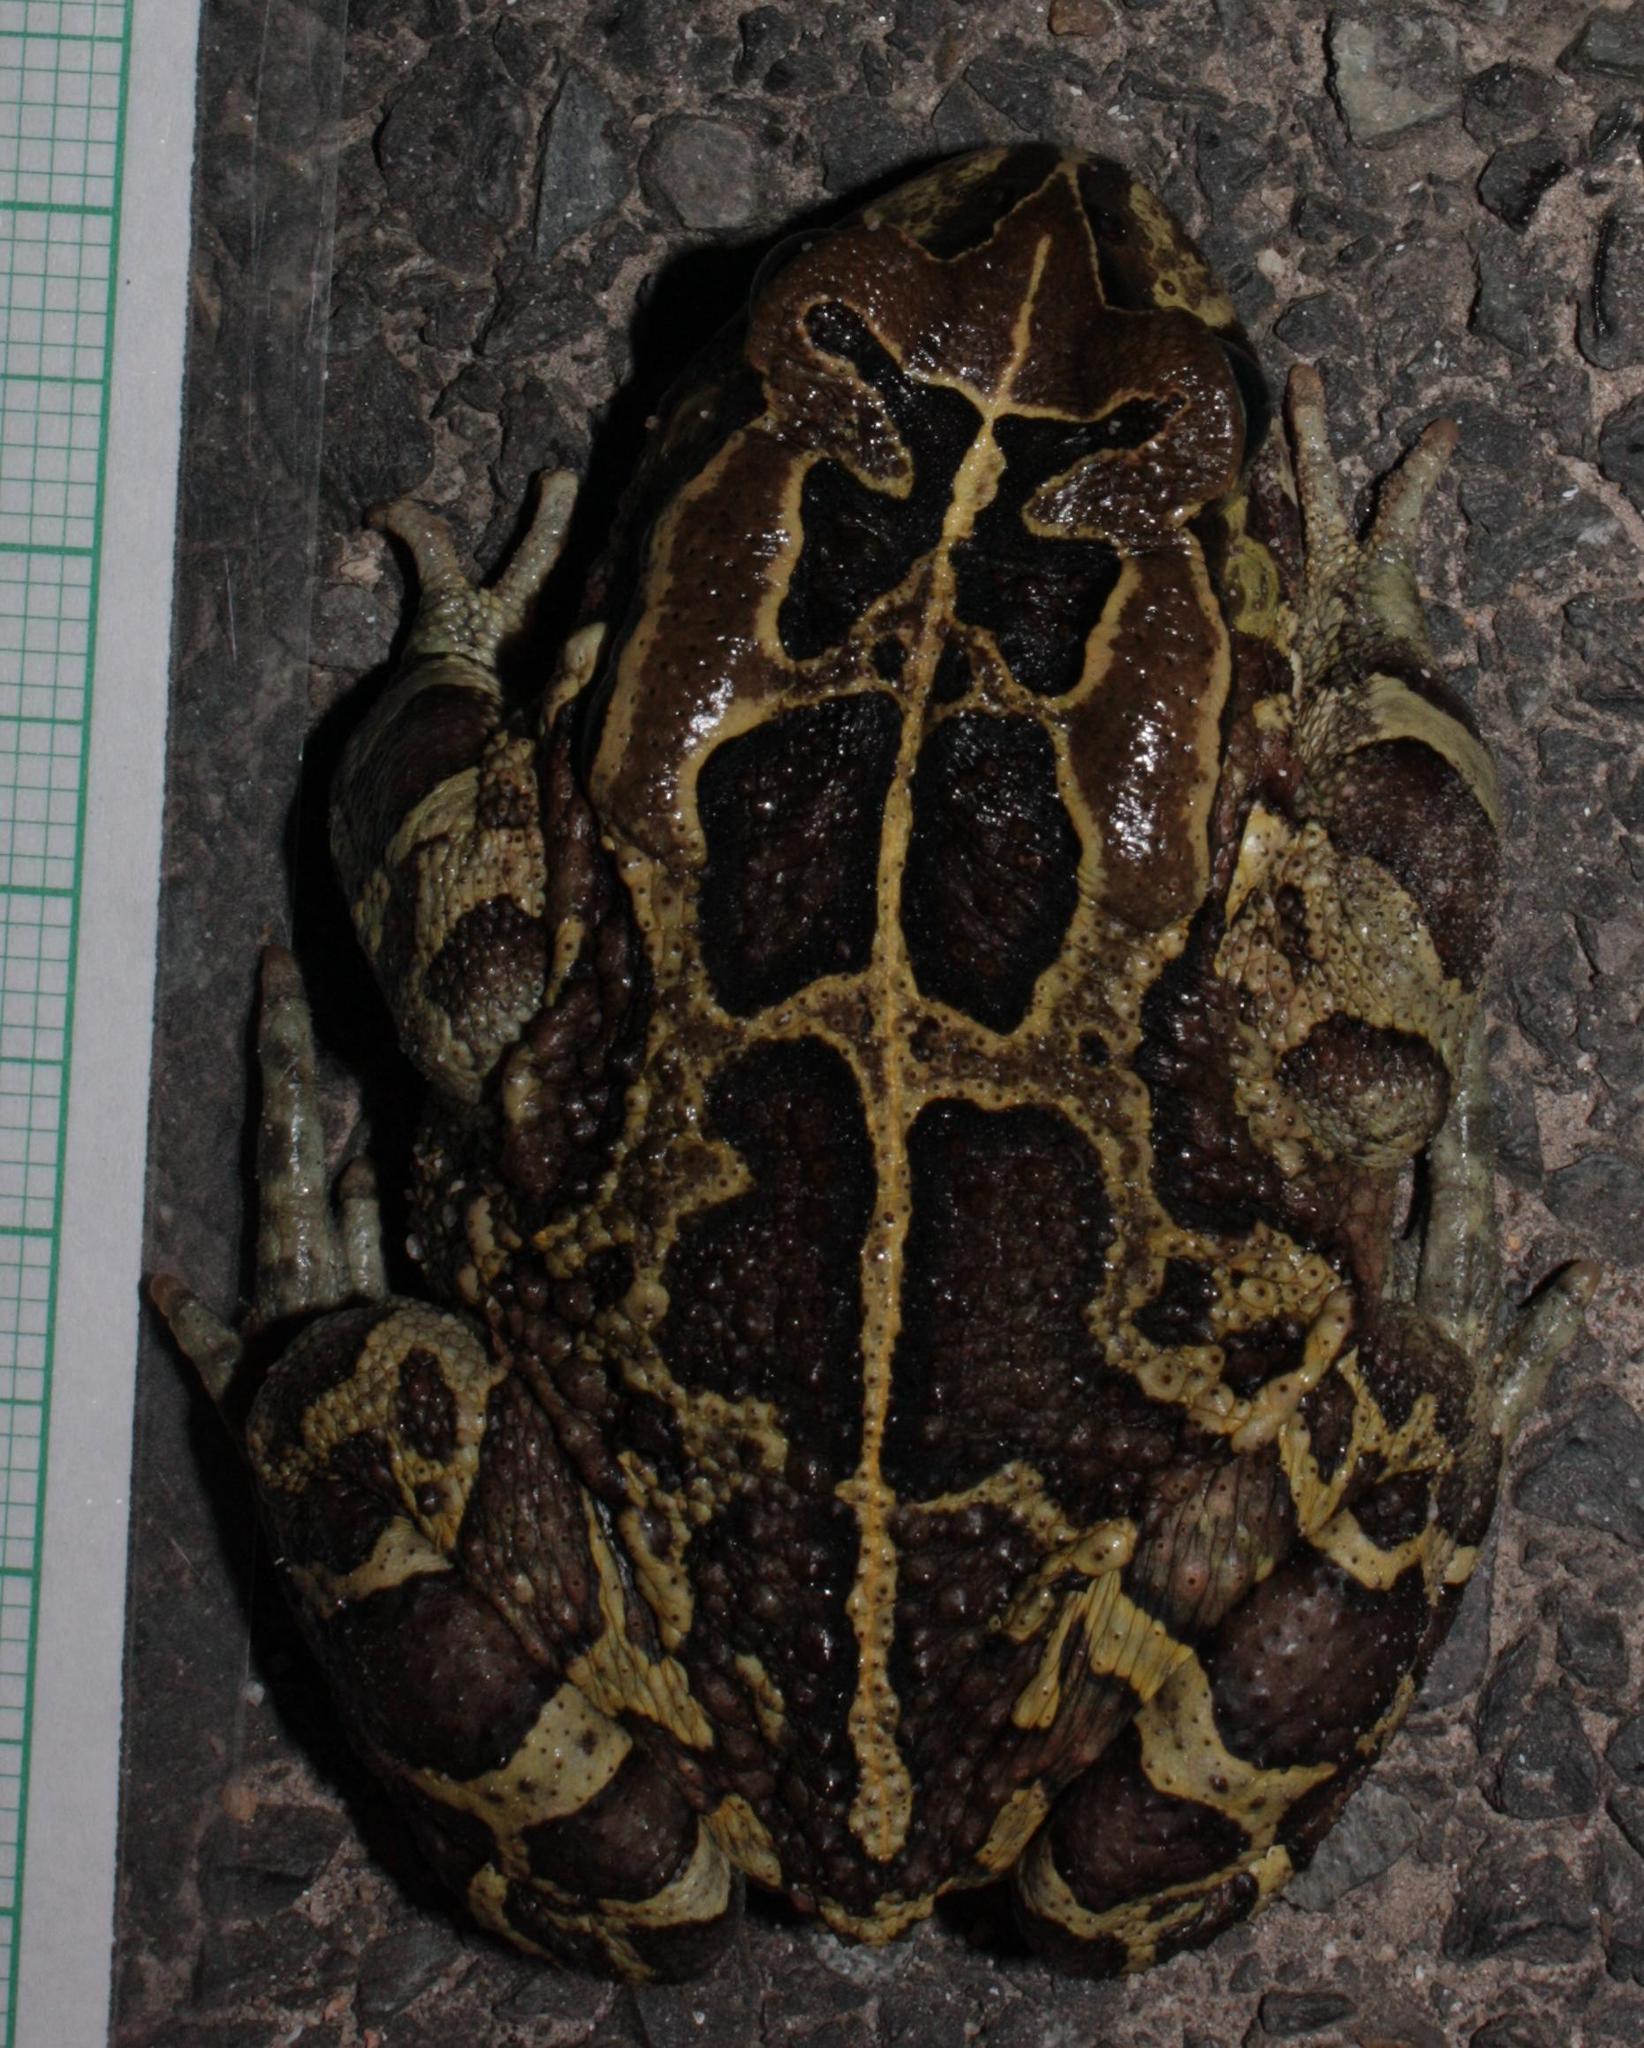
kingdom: Animalia
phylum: Chordata
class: Amphibia
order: Anura
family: Bufonidae
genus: Sclerophrys
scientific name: Sclerophrys pantherina
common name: Panther toad
